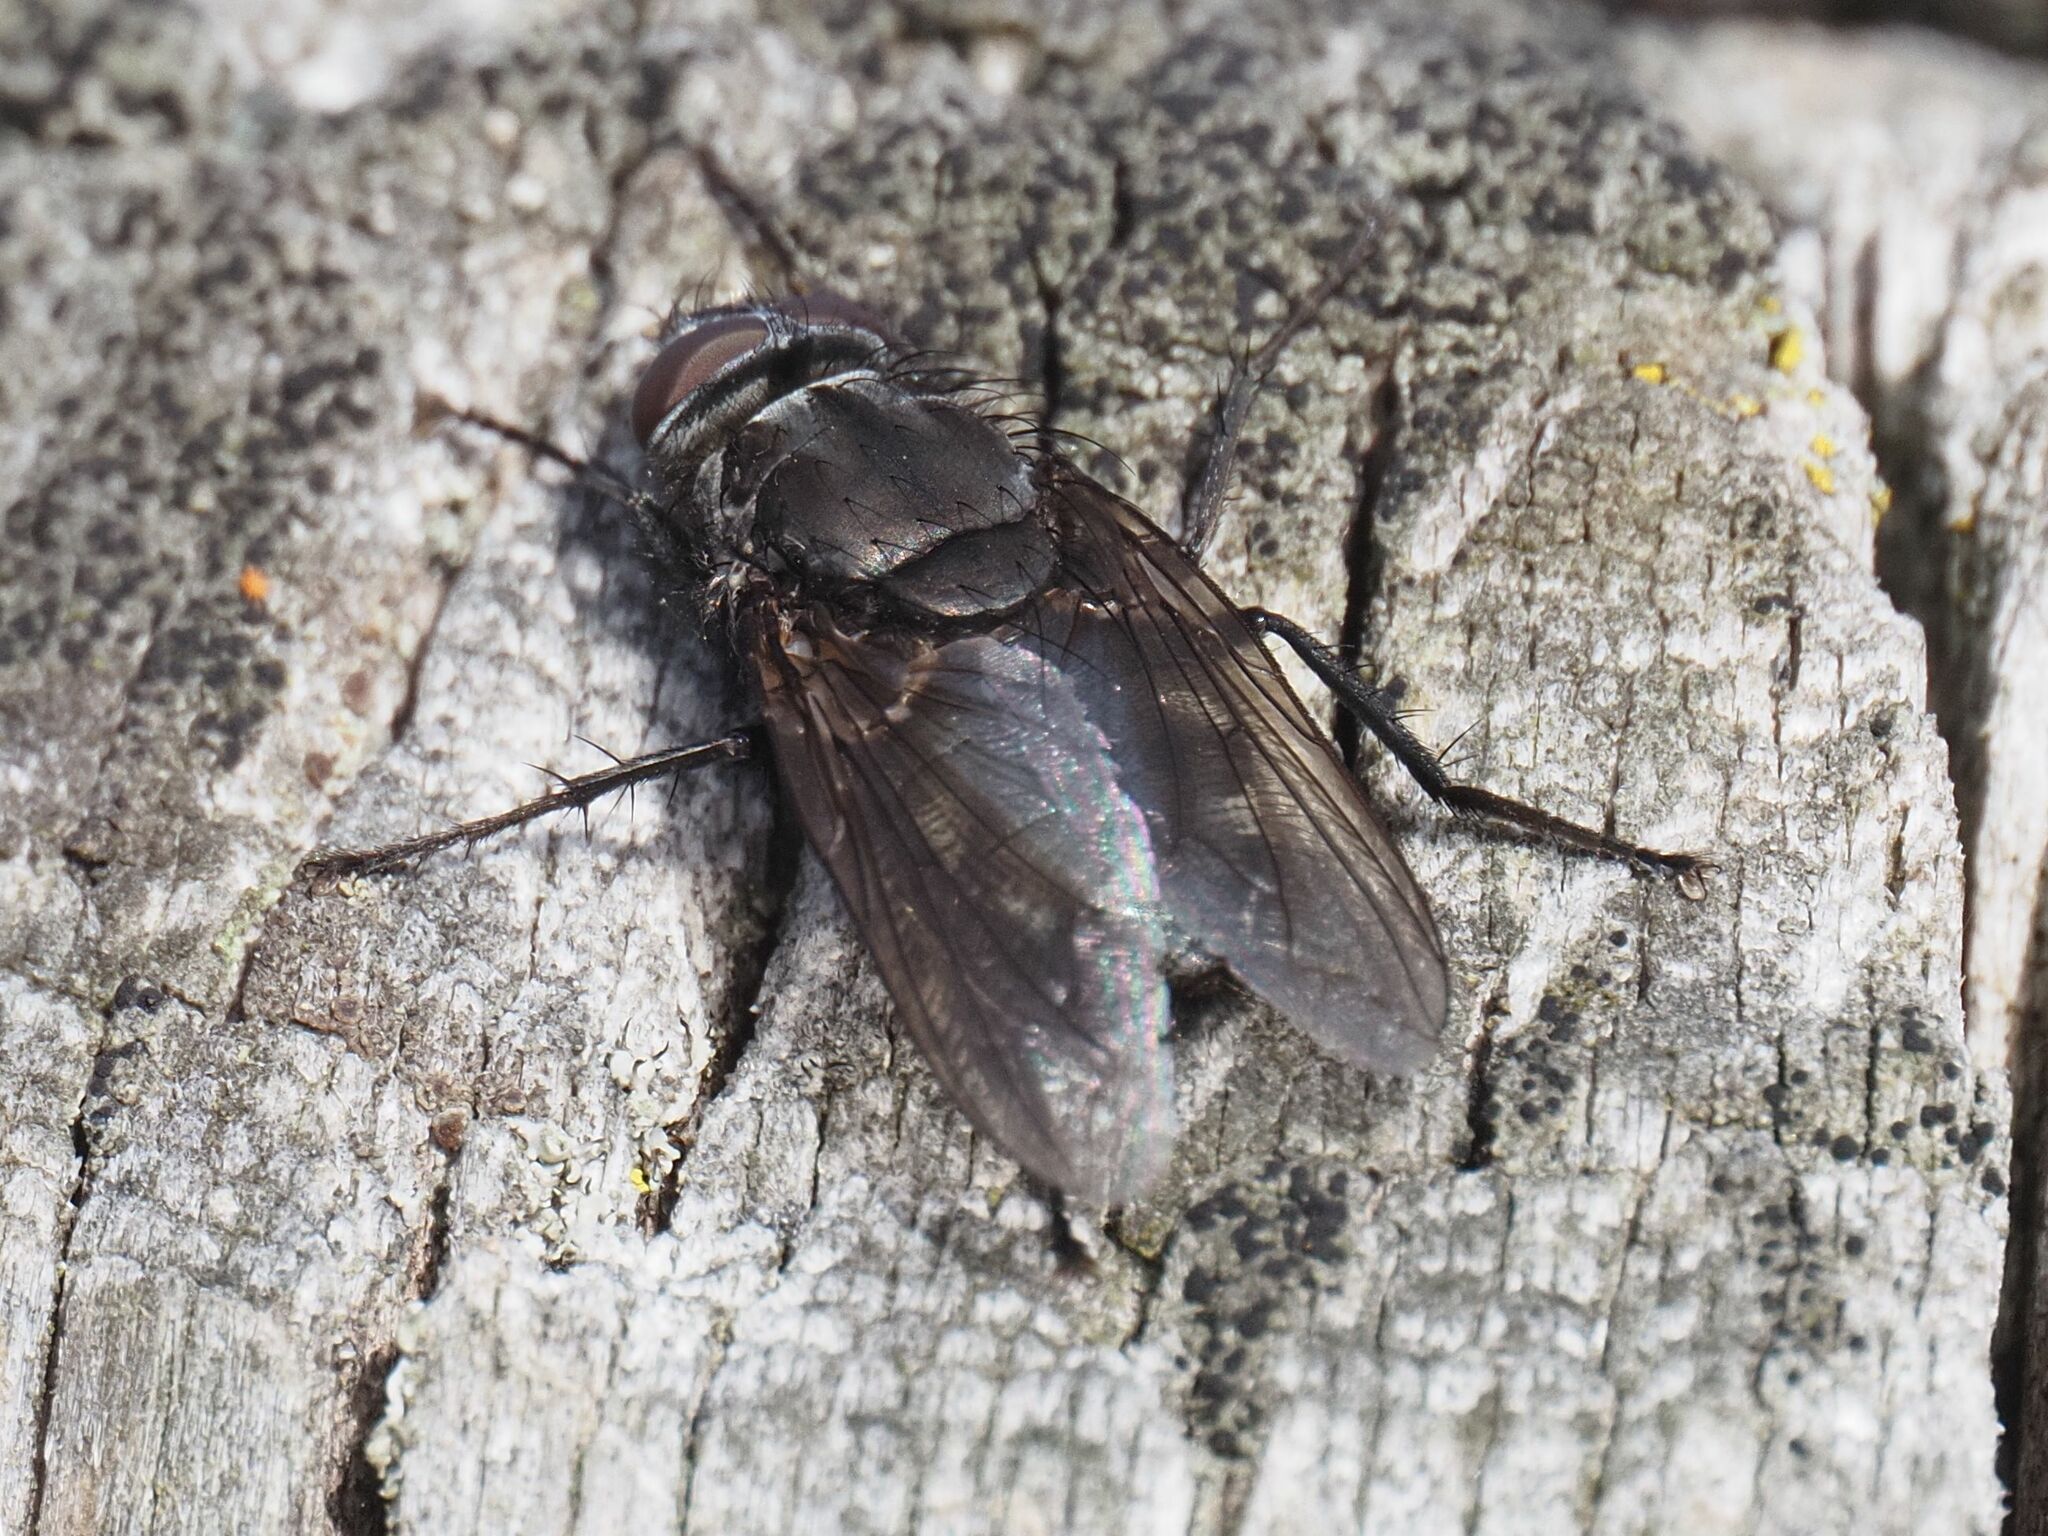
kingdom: Animalia
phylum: Arthropoda
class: Insecta
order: Diptera
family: Polleniidae
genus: Pollenia
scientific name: Pollenia vagabunda
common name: Vagabund cluster fly
